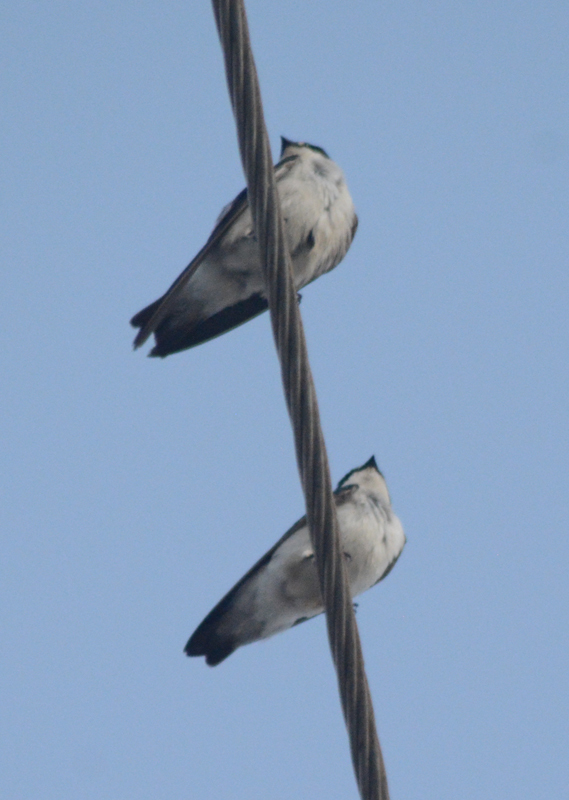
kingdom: Animalia
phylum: Chordata
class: Aves
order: Passeriformes
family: Hirundinidae
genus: Tachycineta
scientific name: Tachycineta albilinea
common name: Mangrove swallow
